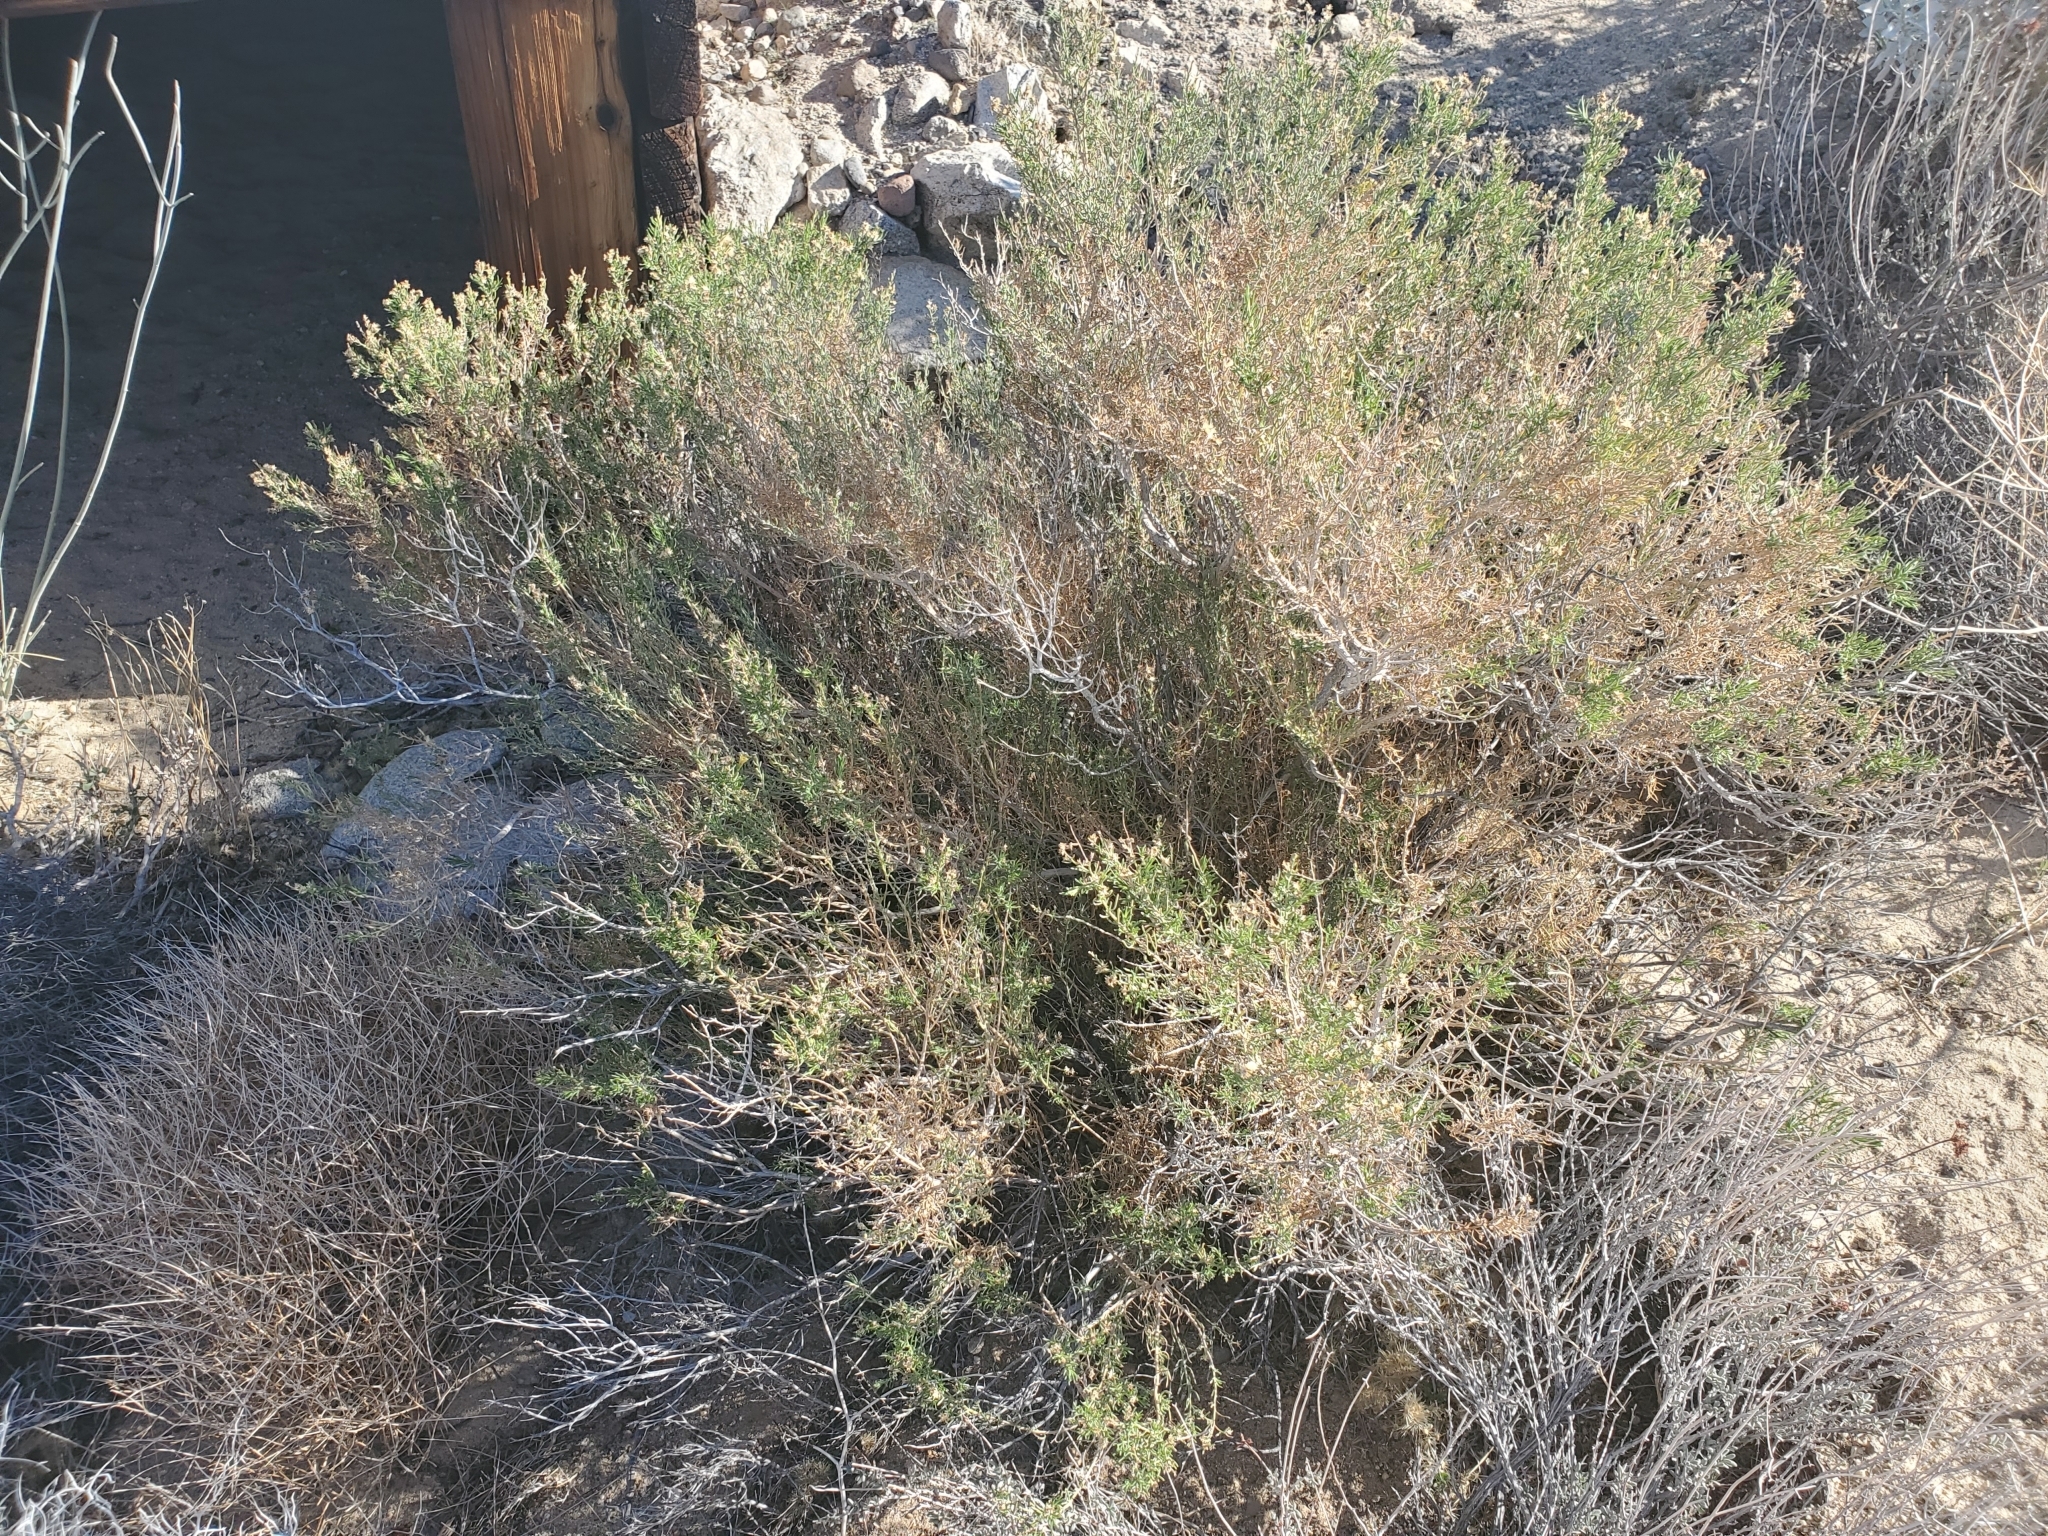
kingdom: Plantae
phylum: Tracheophyta
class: Magnoliopsida
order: Asterales
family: Asteraceae
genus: Ericameria
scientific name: Ericameria brachylepis
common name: Boundary goldenbush
